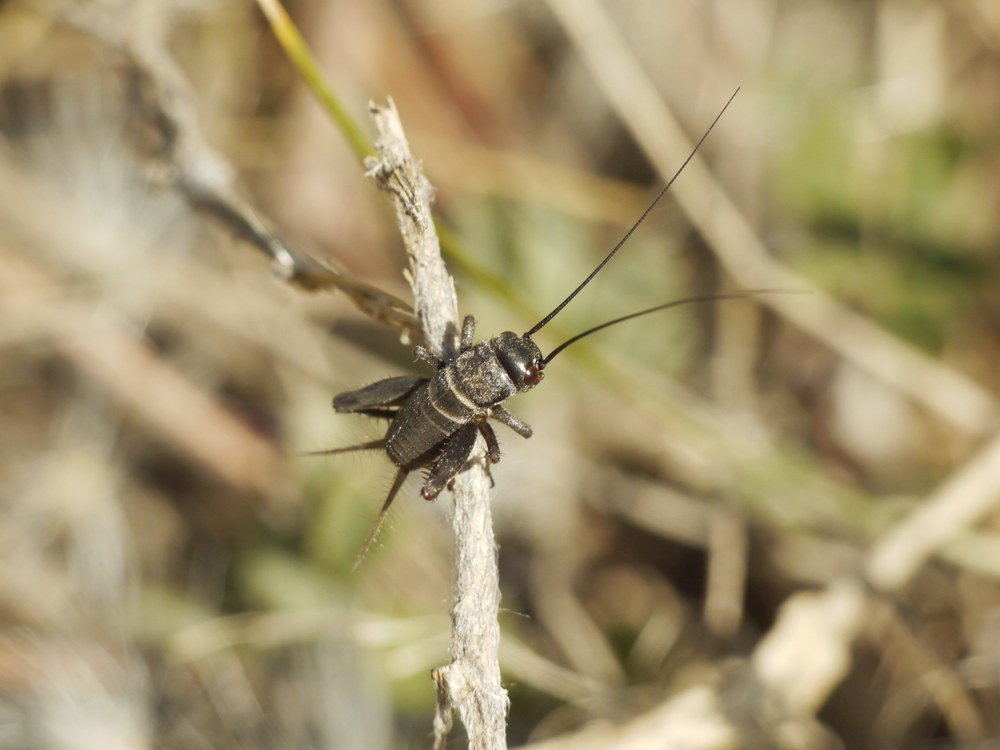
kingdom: Animalia
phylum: Arthropoda
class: Insecta
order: Orthoptera
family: Gryllidae
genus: Melanogryllus
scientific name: Melanogryllus desertus
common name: Desert cricket
